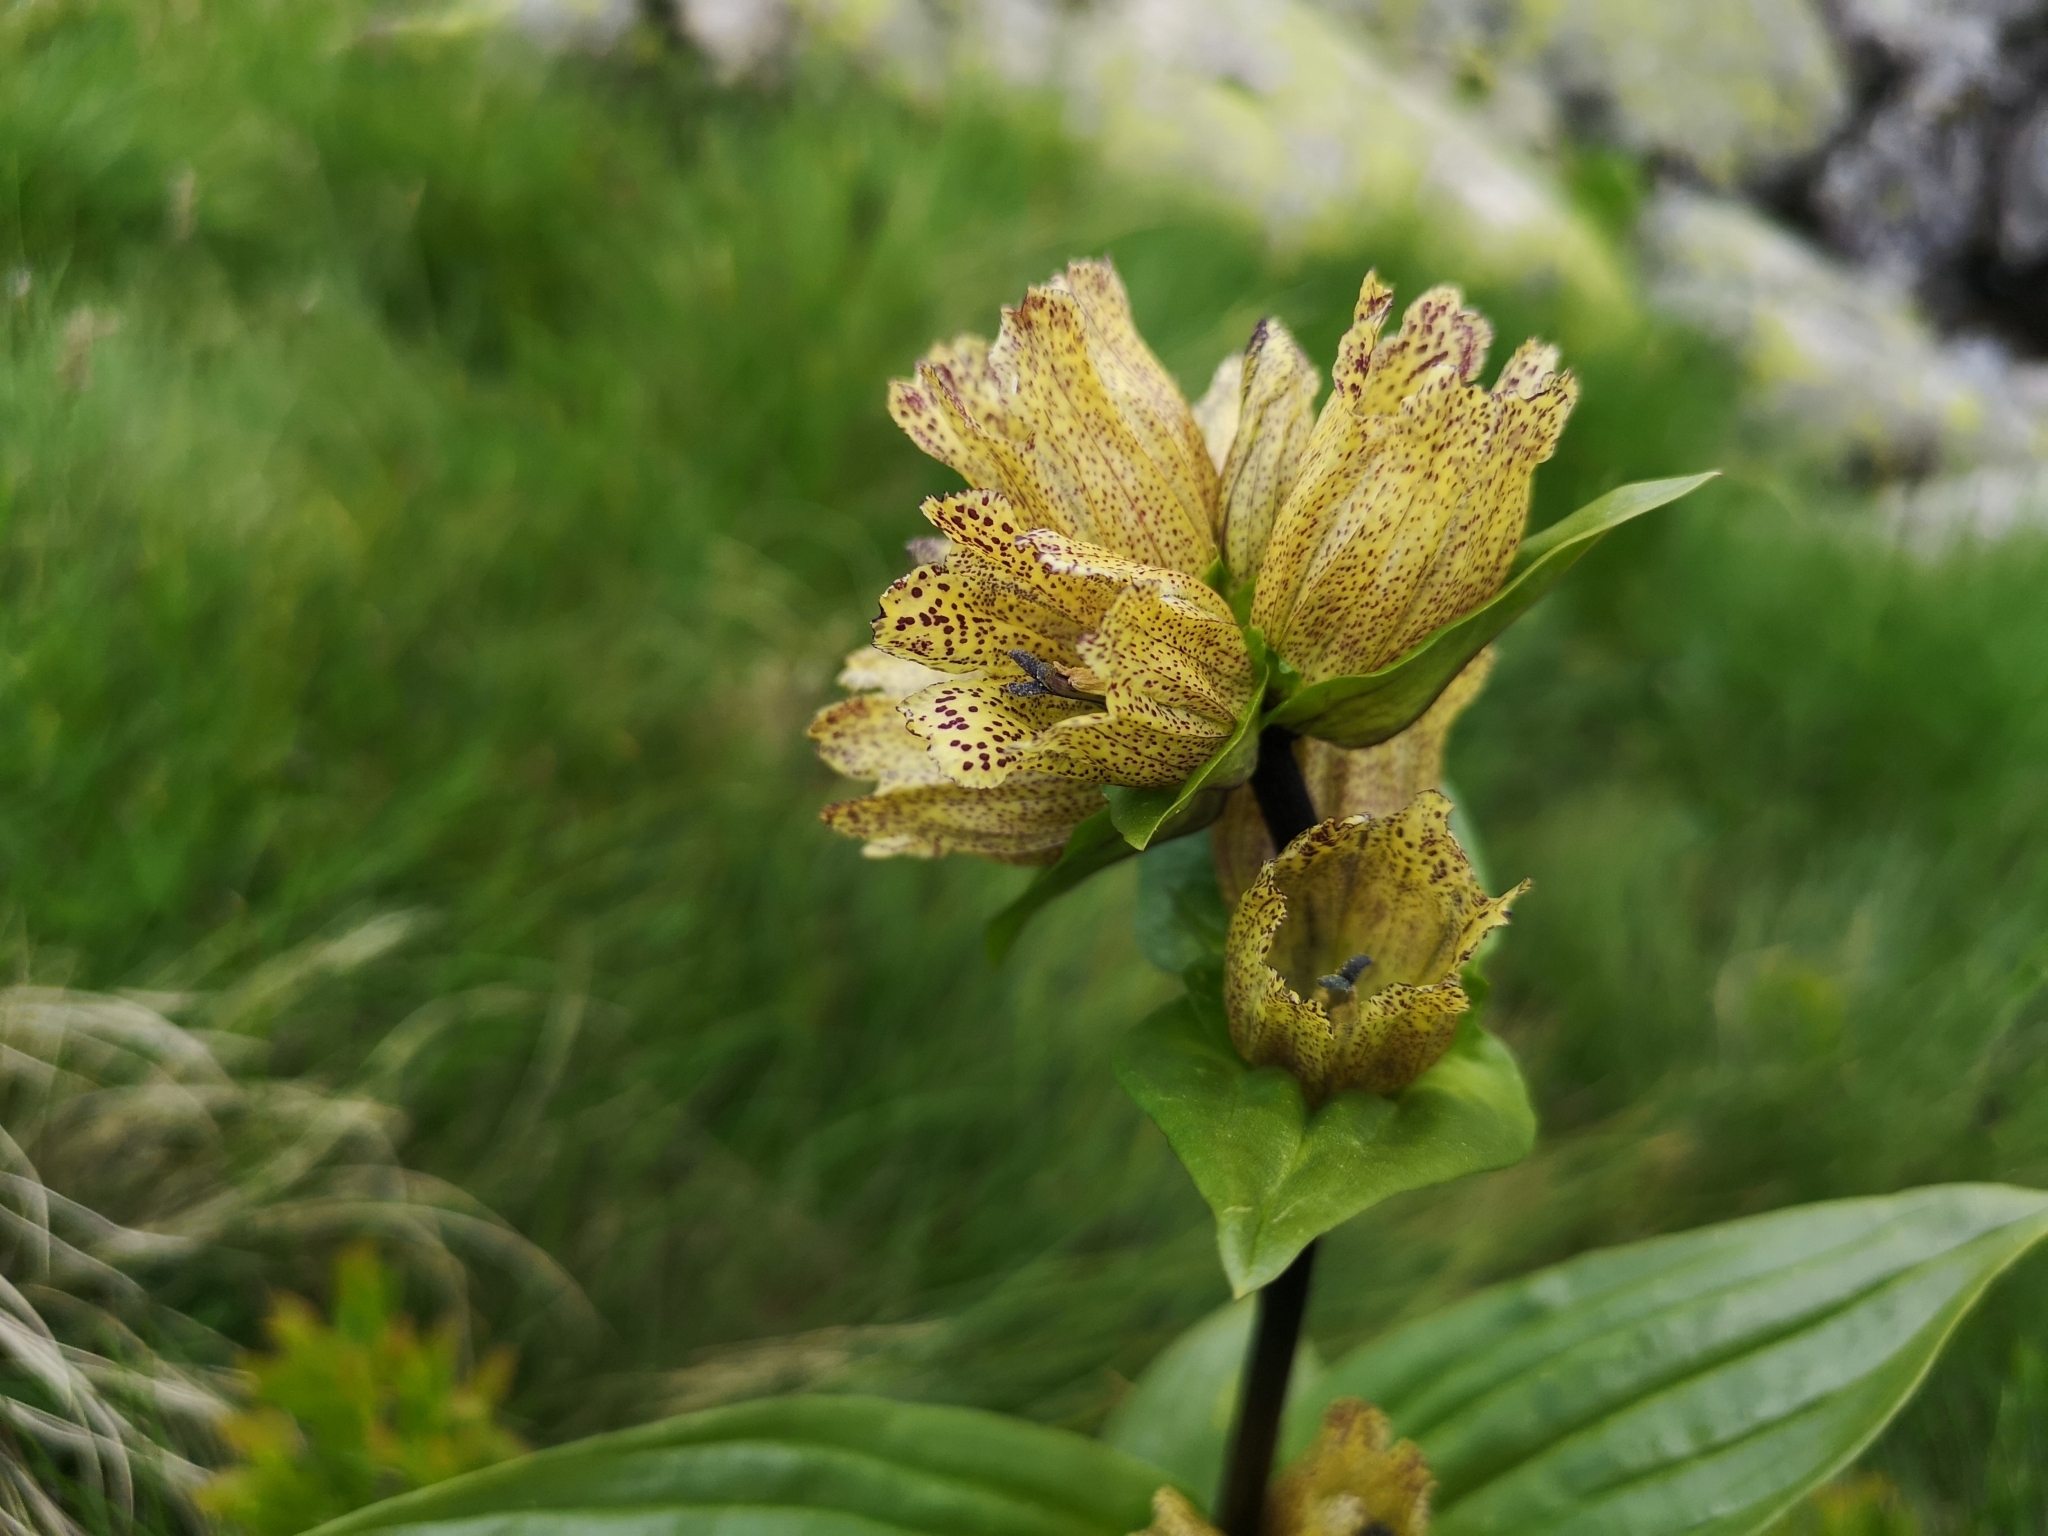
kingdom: Plantae
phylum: Tracheophyta
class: Magnoliopsida
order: Gentianales
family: Gentianaceae
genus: Gentiana
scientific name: Gentiana punctata
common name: Spotted gentian
